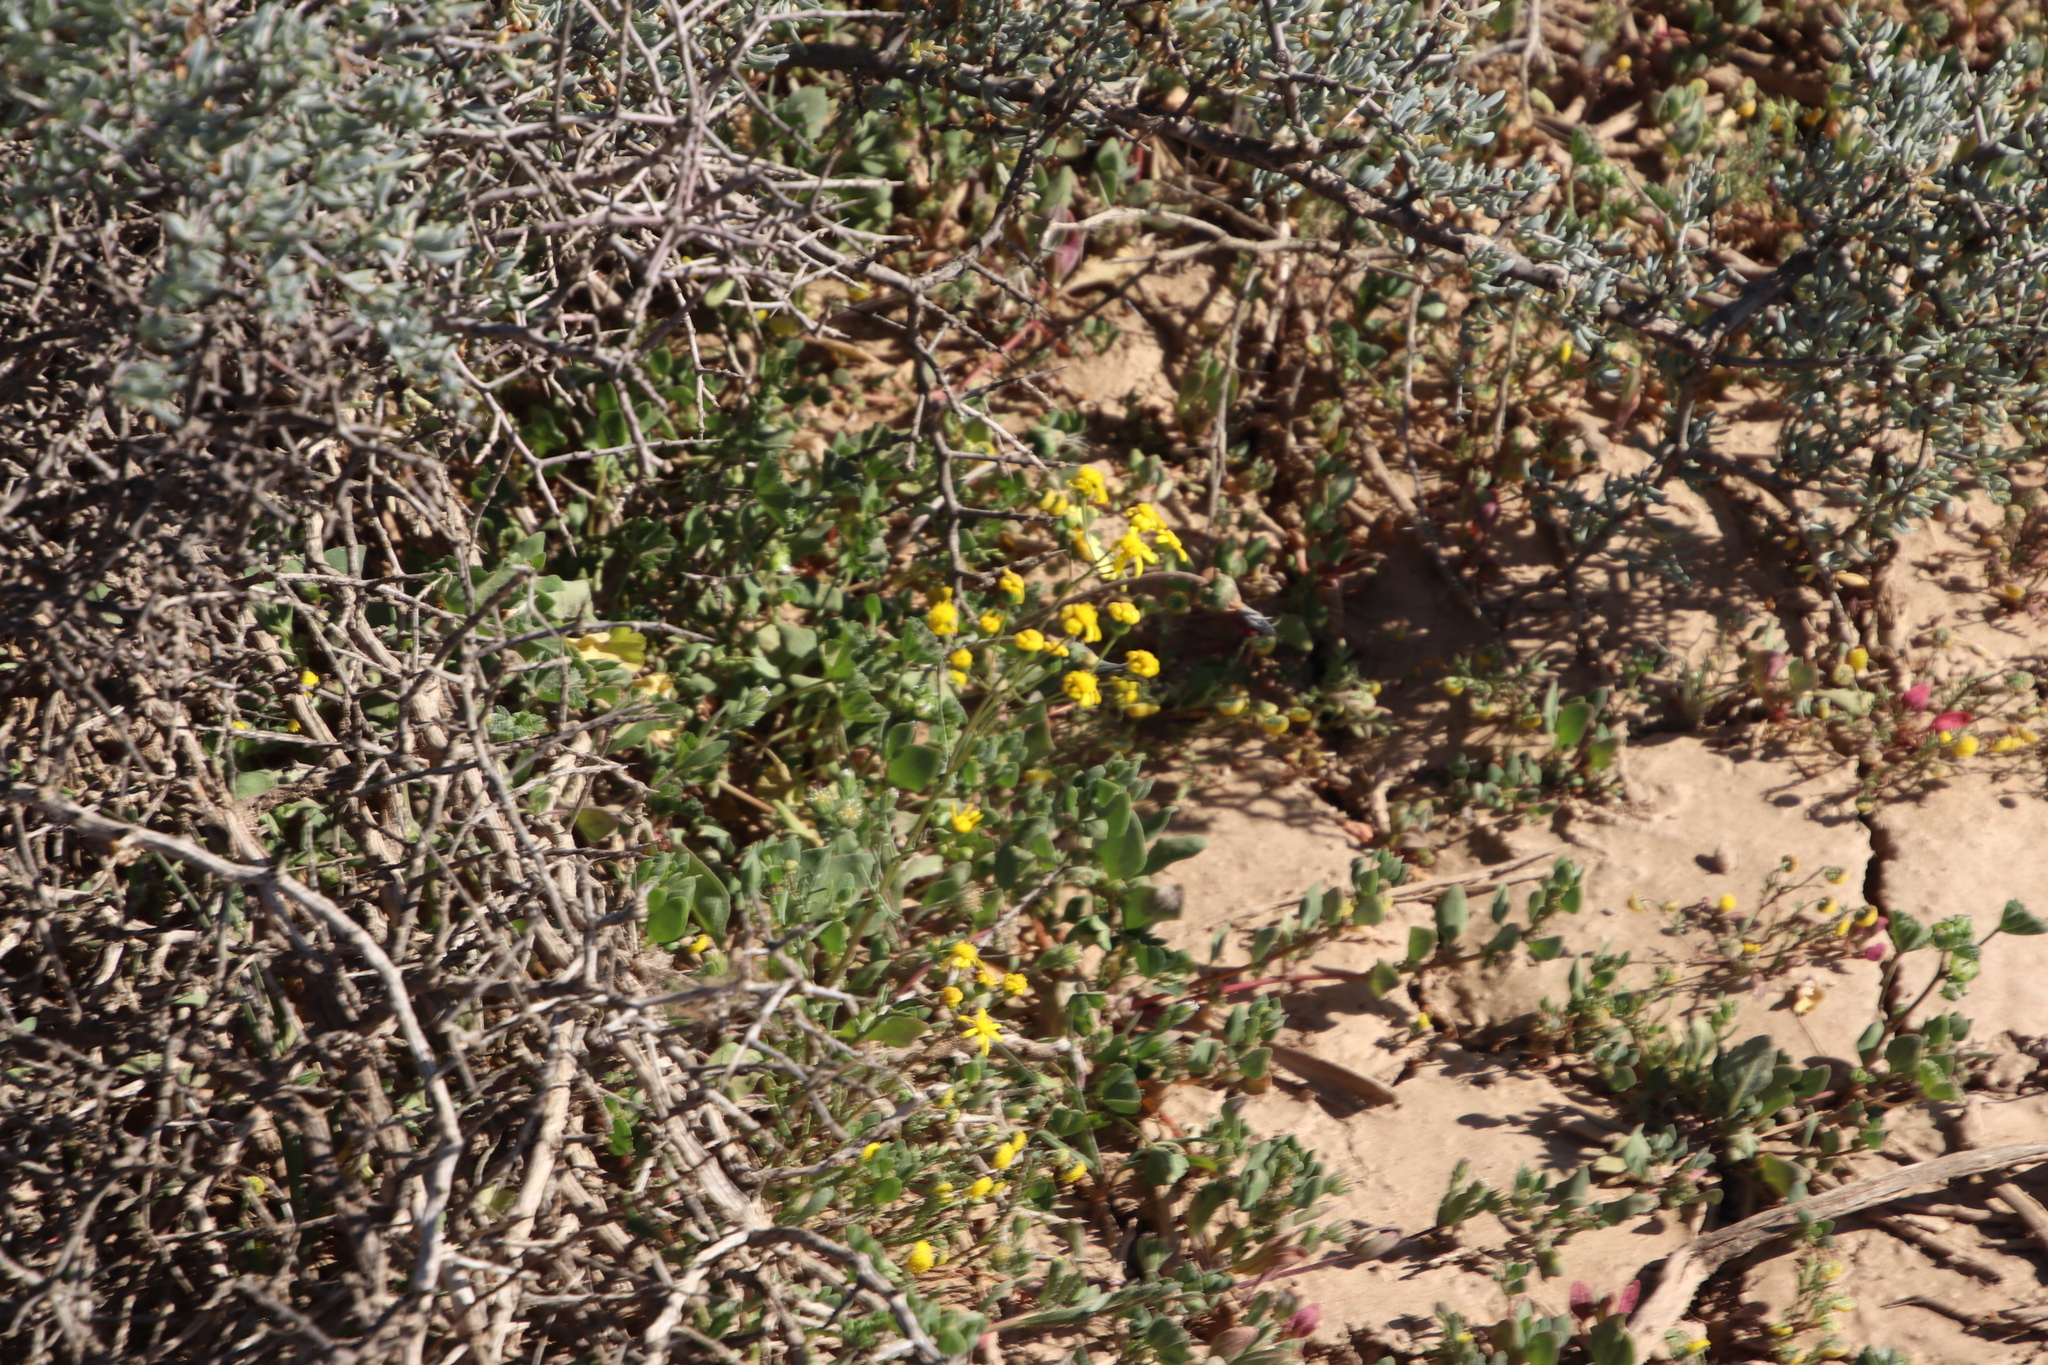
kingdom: Plantae
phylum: Tracheophyta
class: Magnoliopsida
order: Asterales
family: Asteraceae
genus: Senecio
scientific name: Senecio abruptus
